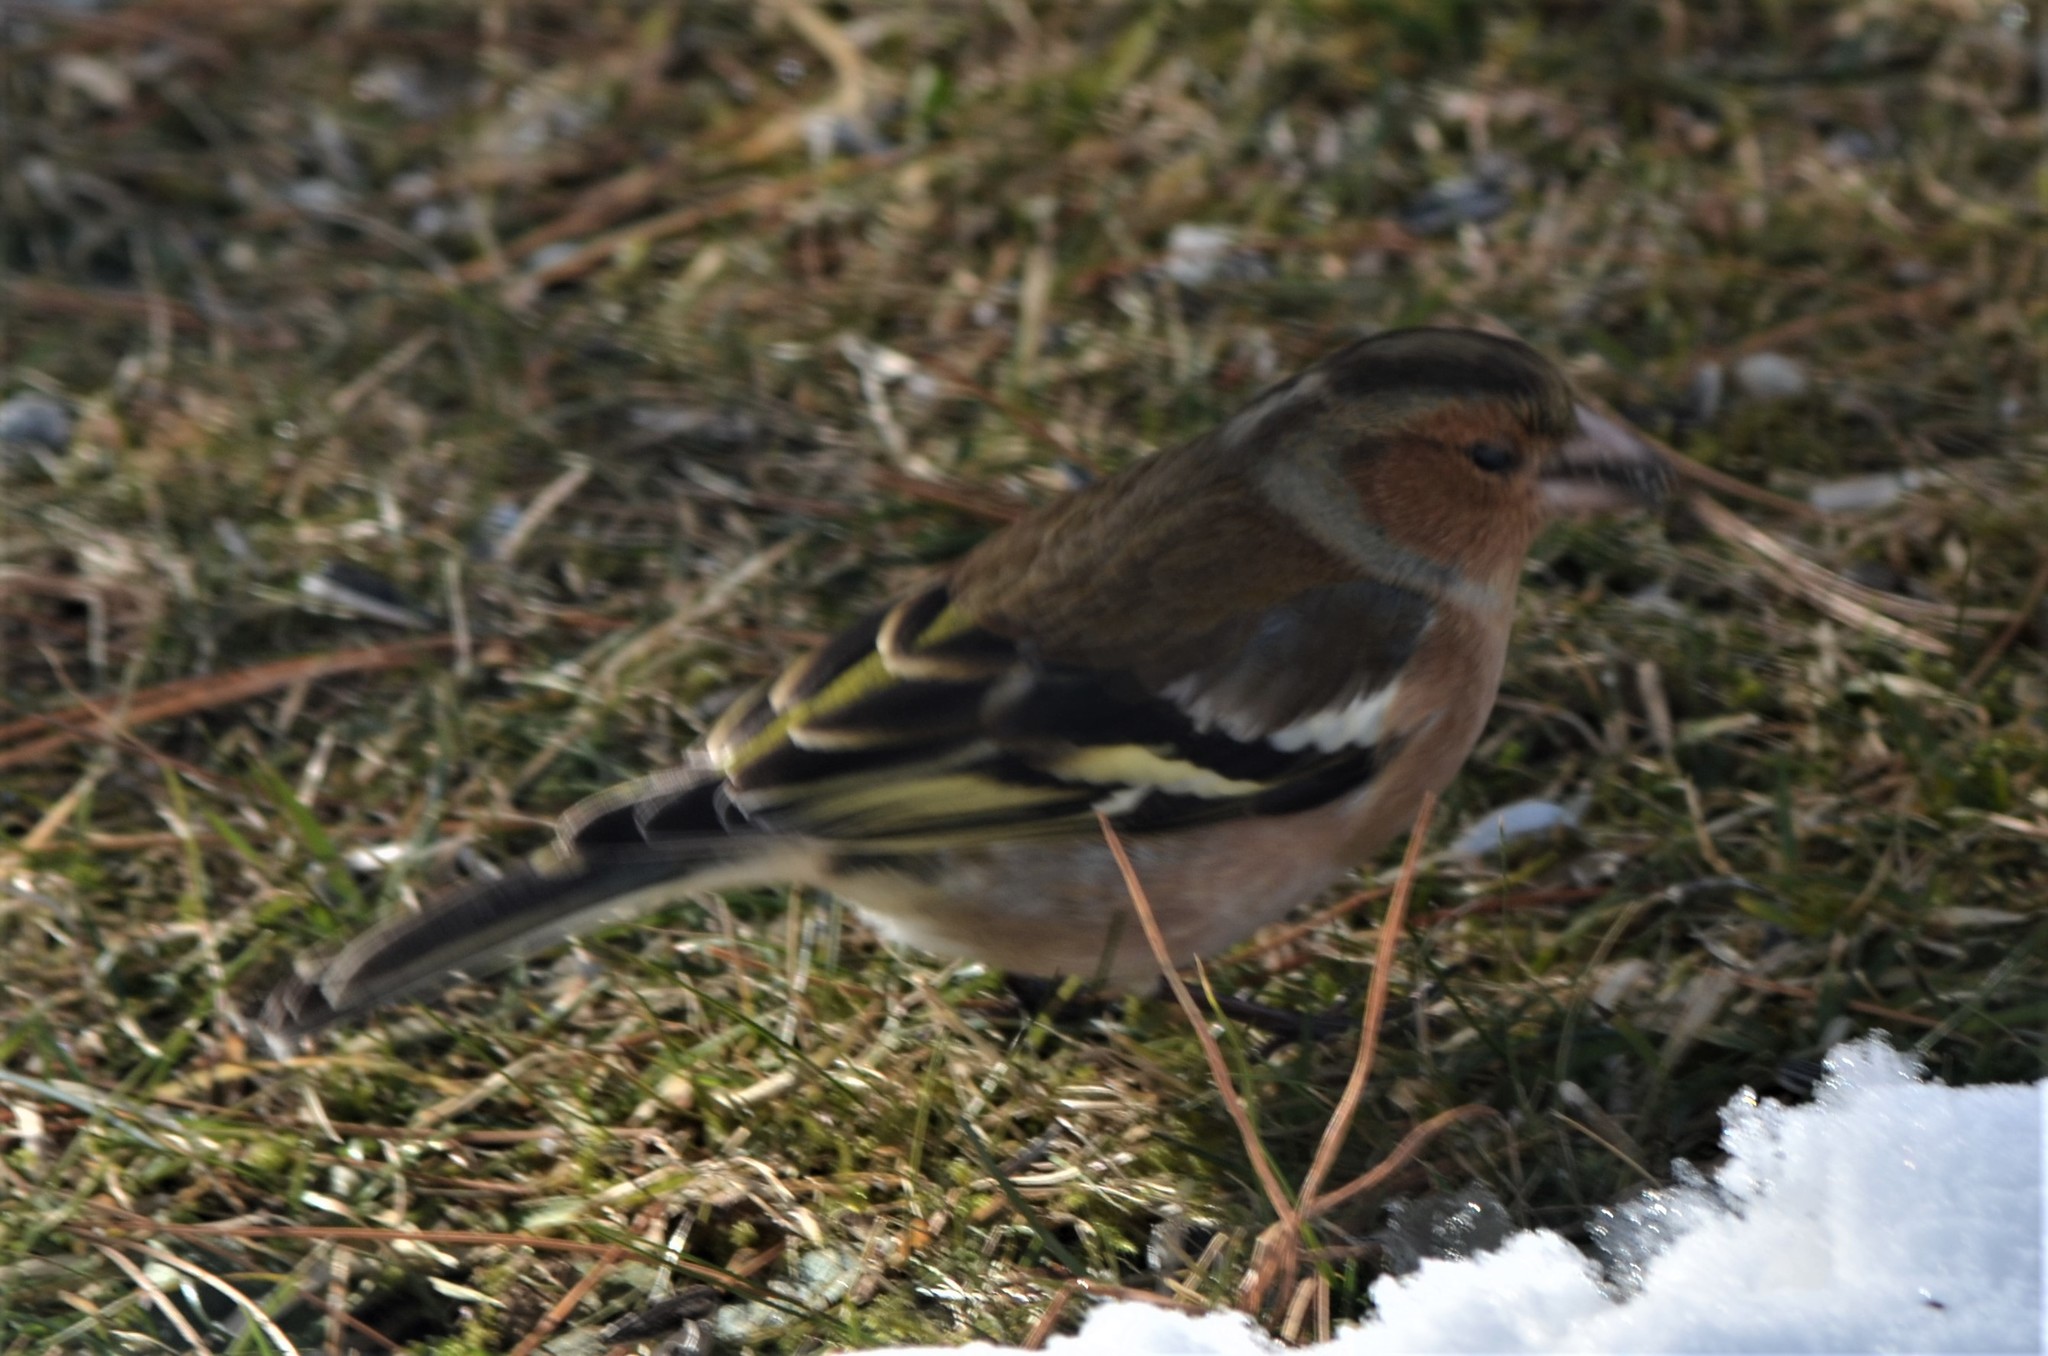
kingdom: Animalia
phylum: Chordata
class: Aves
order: Passeriformes
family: Fringillidae
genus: Fringilla
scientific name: Fringilla coelebs
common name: Common chaffinch
